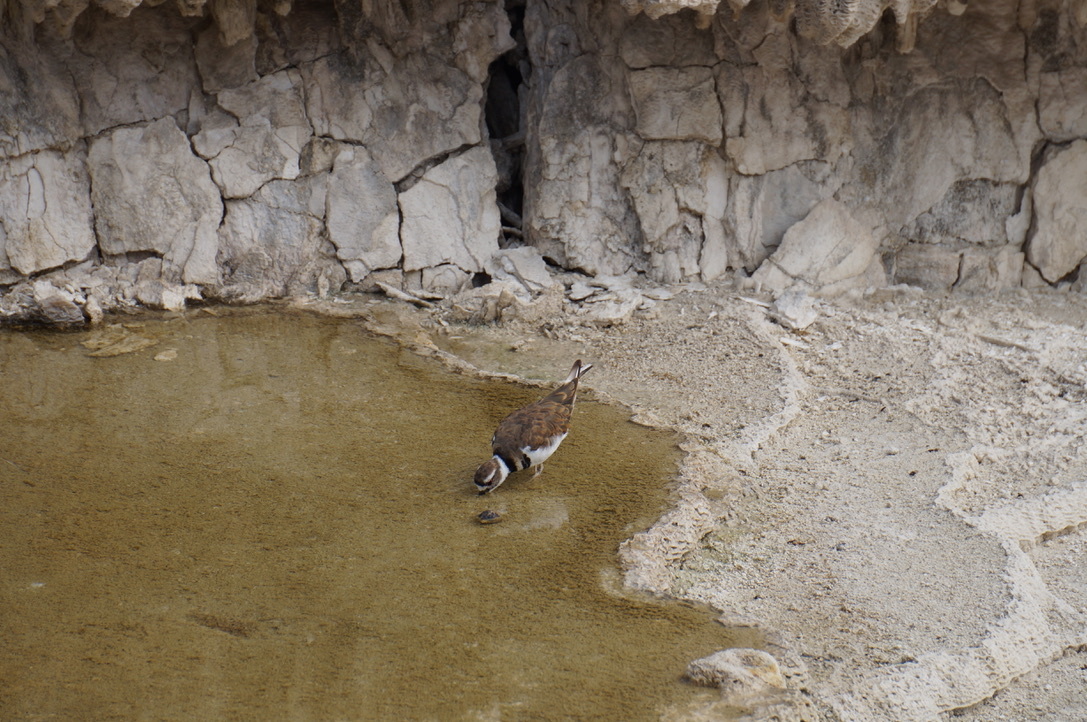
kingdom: Animalia
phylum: Chordata
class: Aves
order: Charadriiformes
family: Charadriidae
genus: Charadrius
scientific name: Charadrius vociferus
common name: Killdeer
